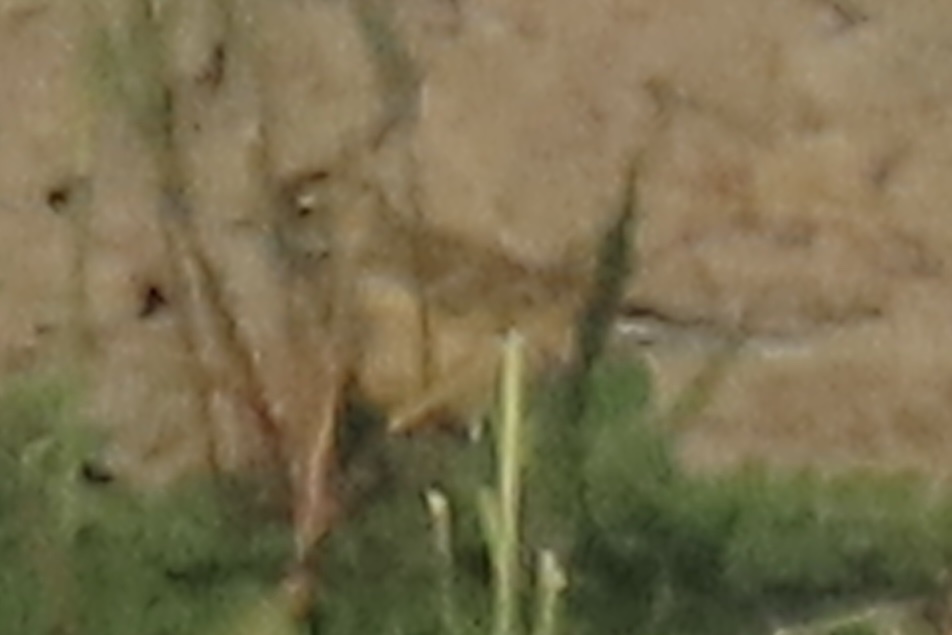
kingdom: Animalia
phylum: Chordata
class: Aves
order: Passeriformes
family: Motacillidae
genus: Anthus
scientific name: Anthus rubescens
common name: Buff-bellied pipit
